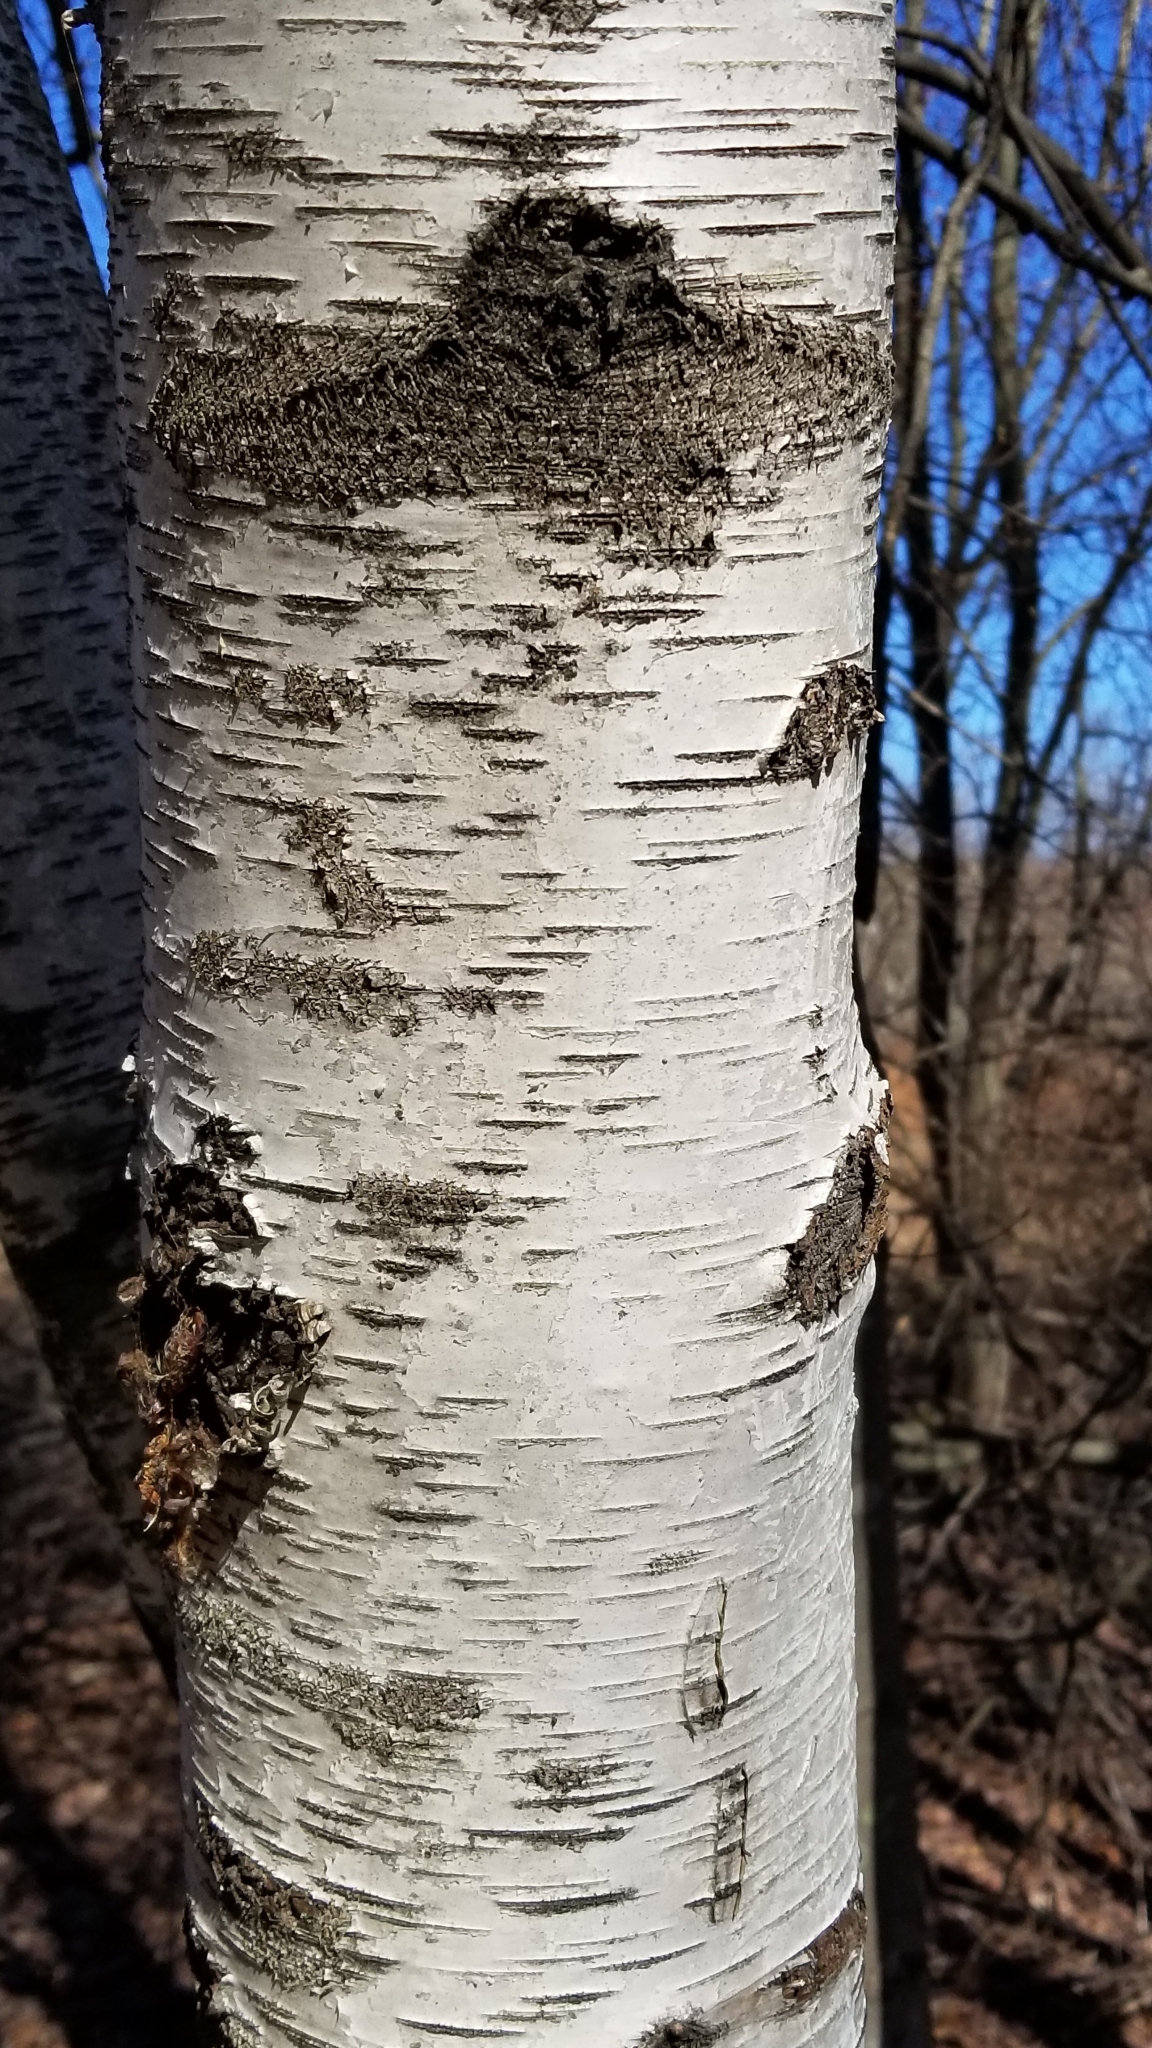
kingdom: Plantae
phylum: Tracheophyta
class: Magnoliopsida
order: Fagales
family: Betulaceae
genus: Betula
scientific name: Betula papyrifera
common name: Paper birch
